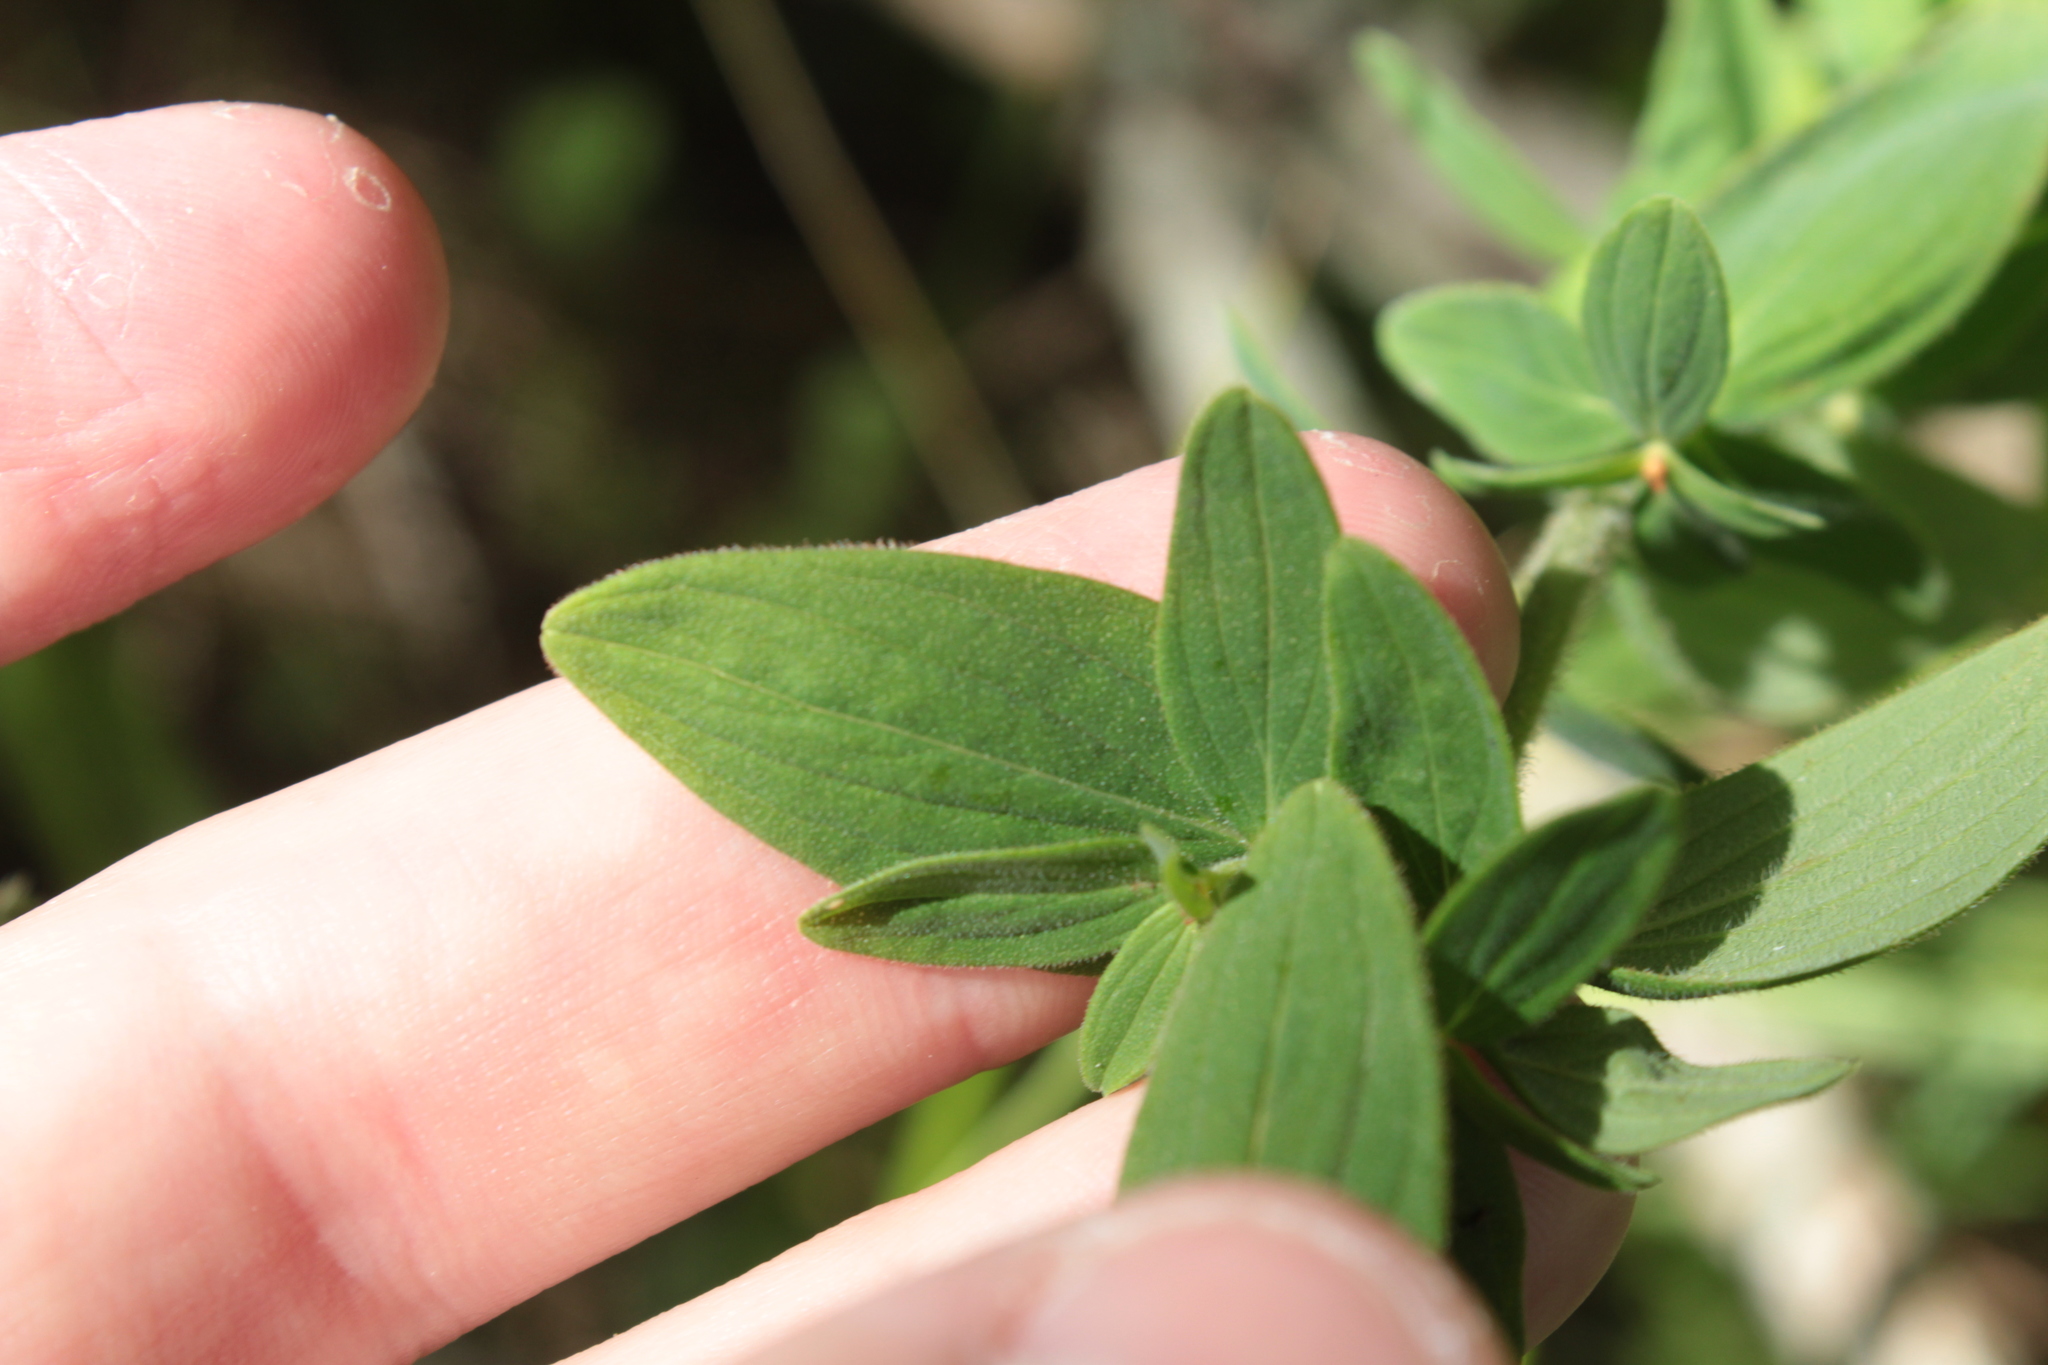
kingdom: Plantae
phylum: Tracheophyta
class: Magnoliopsida
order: Malpighiales
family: Hypericaceae
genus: Hypericum
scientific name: Hypericum hirsutum
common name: Hairy st. john's-wort
